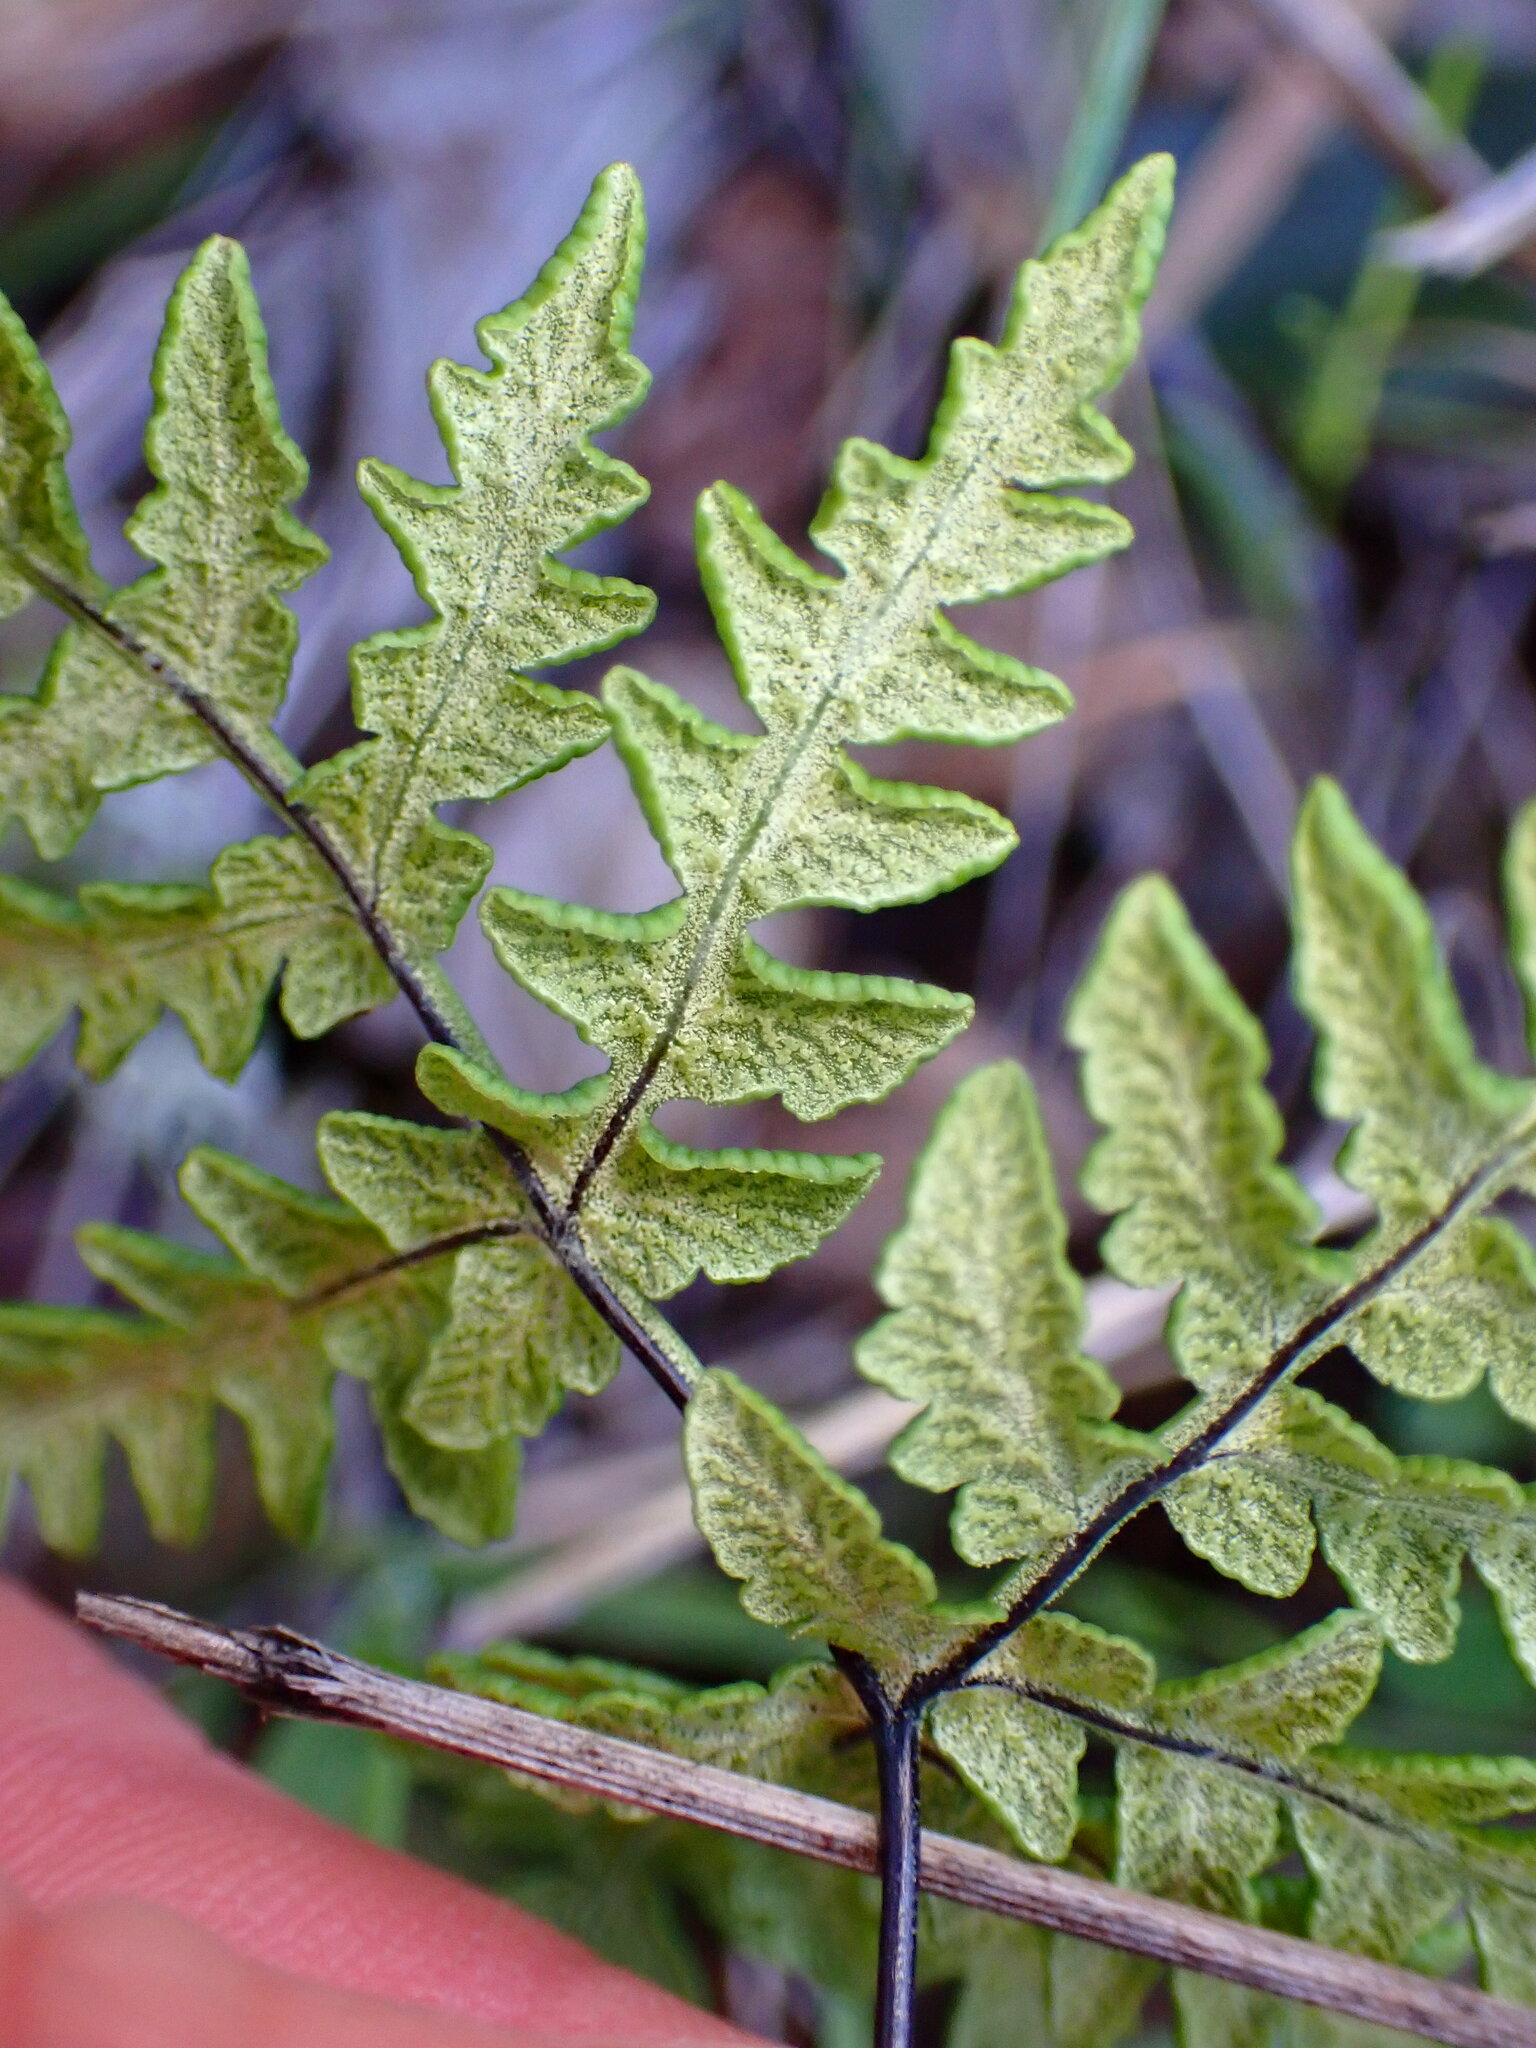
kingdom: Plantae
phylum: Tracheophyta
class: Polypodiopsida
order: Polypodiales
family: Pteridaceae
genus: Pentagramma
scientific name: Pentagramma triangularis
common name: Gold fern
